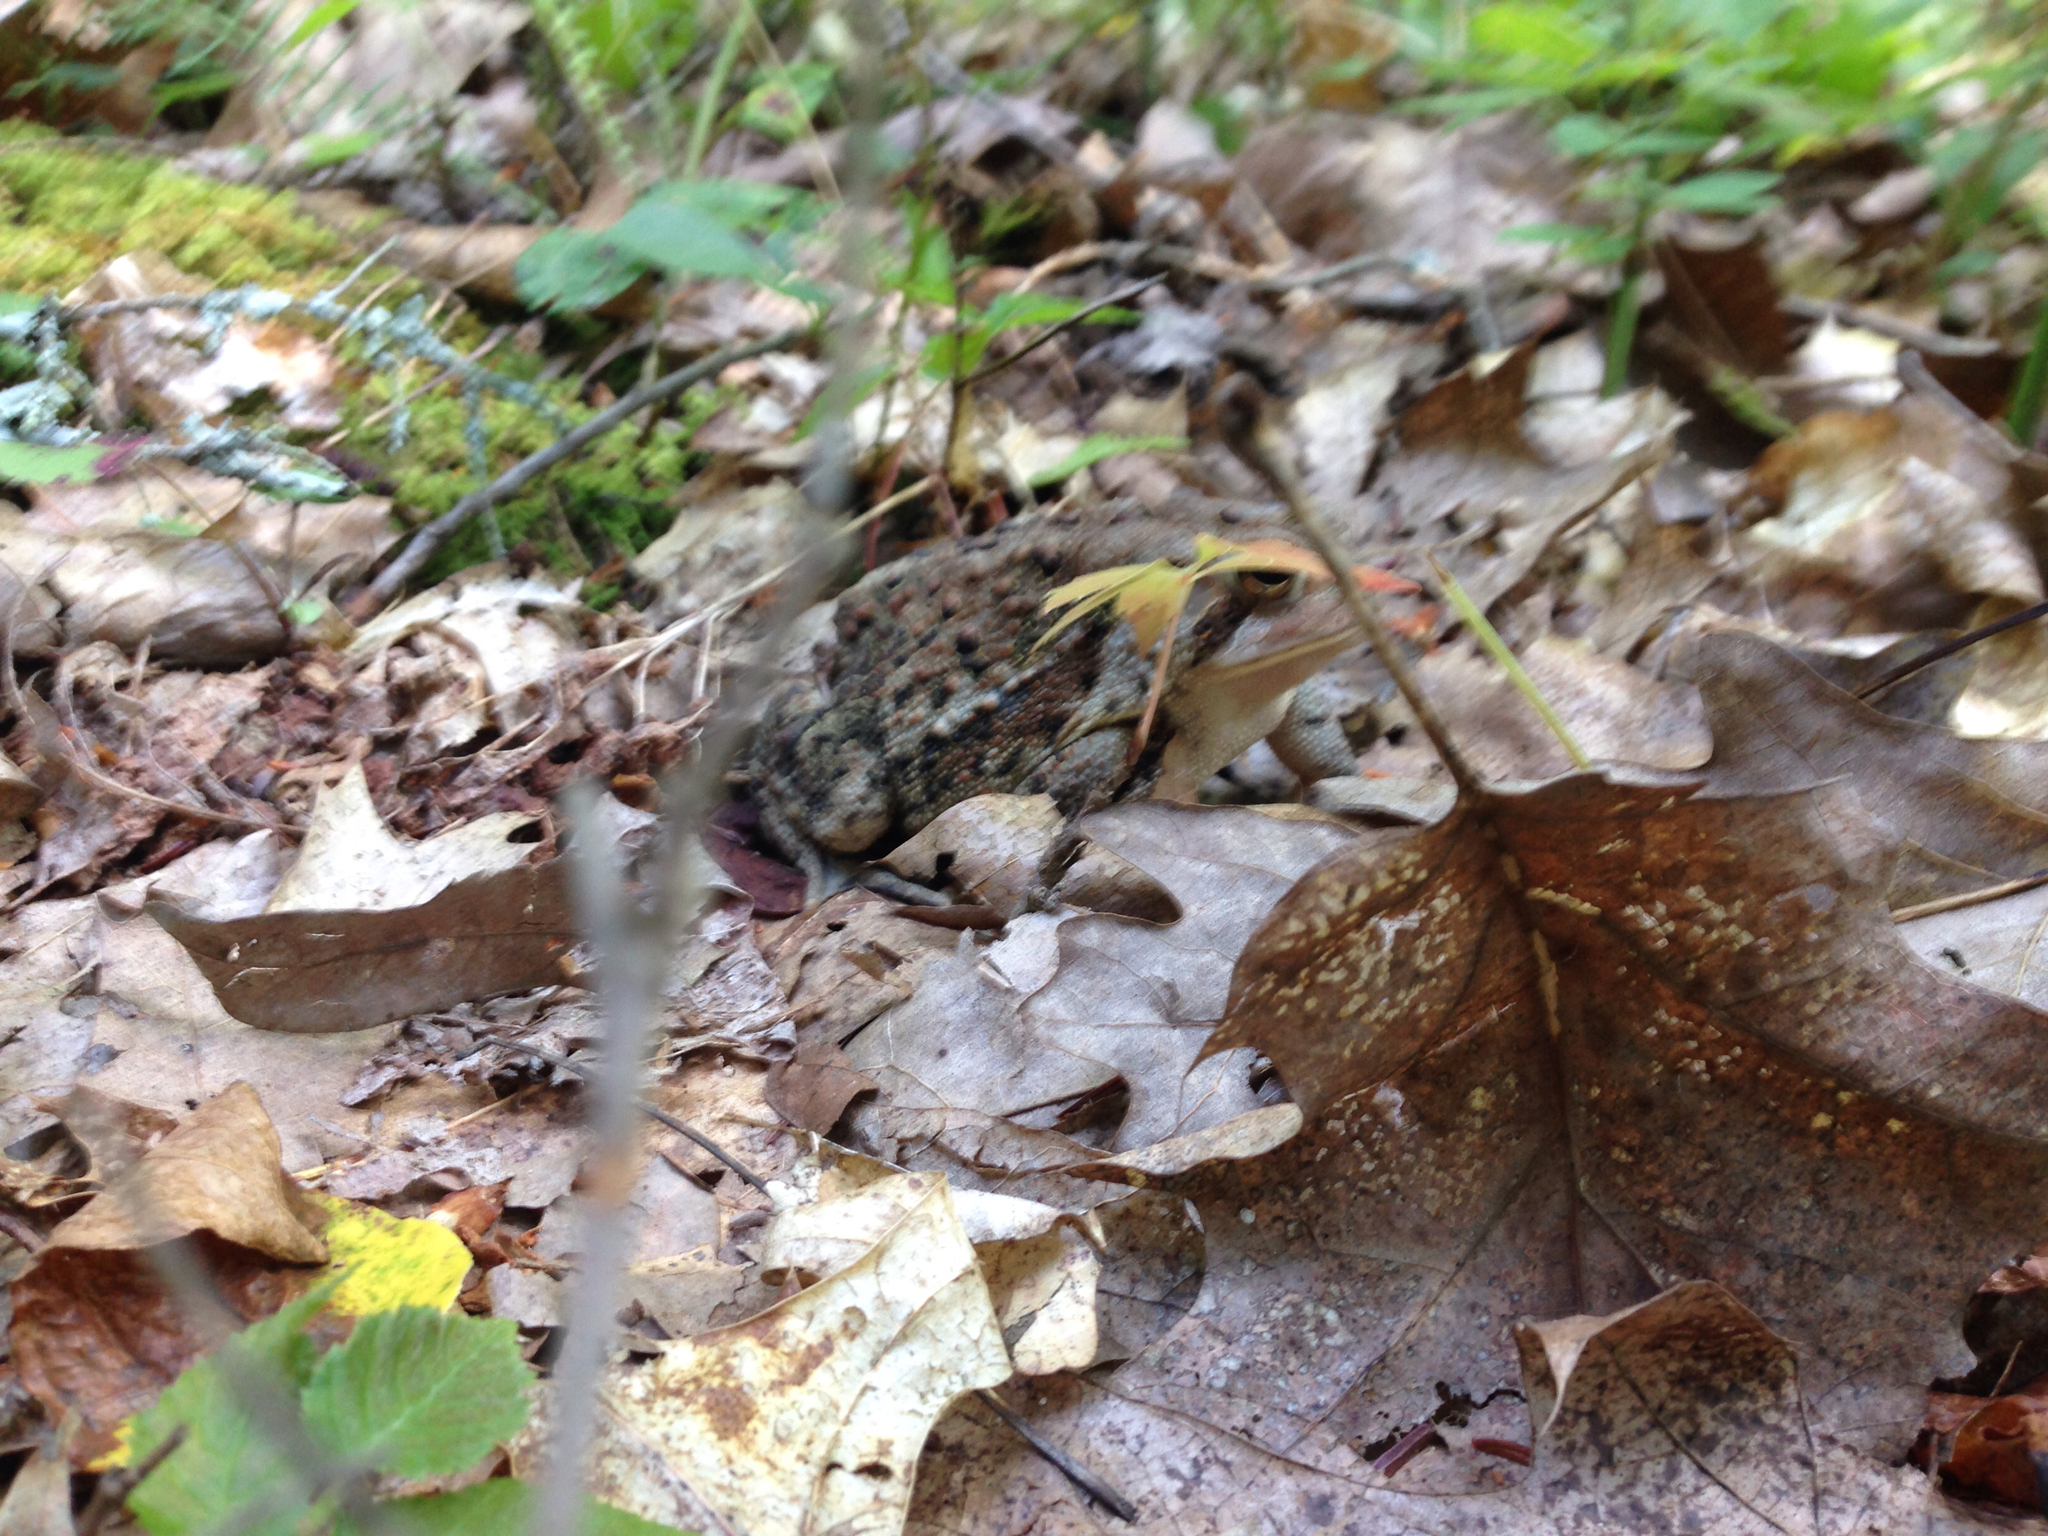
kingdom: Animalia
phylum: Chordata
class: Amphibia
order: Anura
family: Bufonidae
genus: Anaxyrus
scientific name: Anaxyrus americanus
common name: American toad
